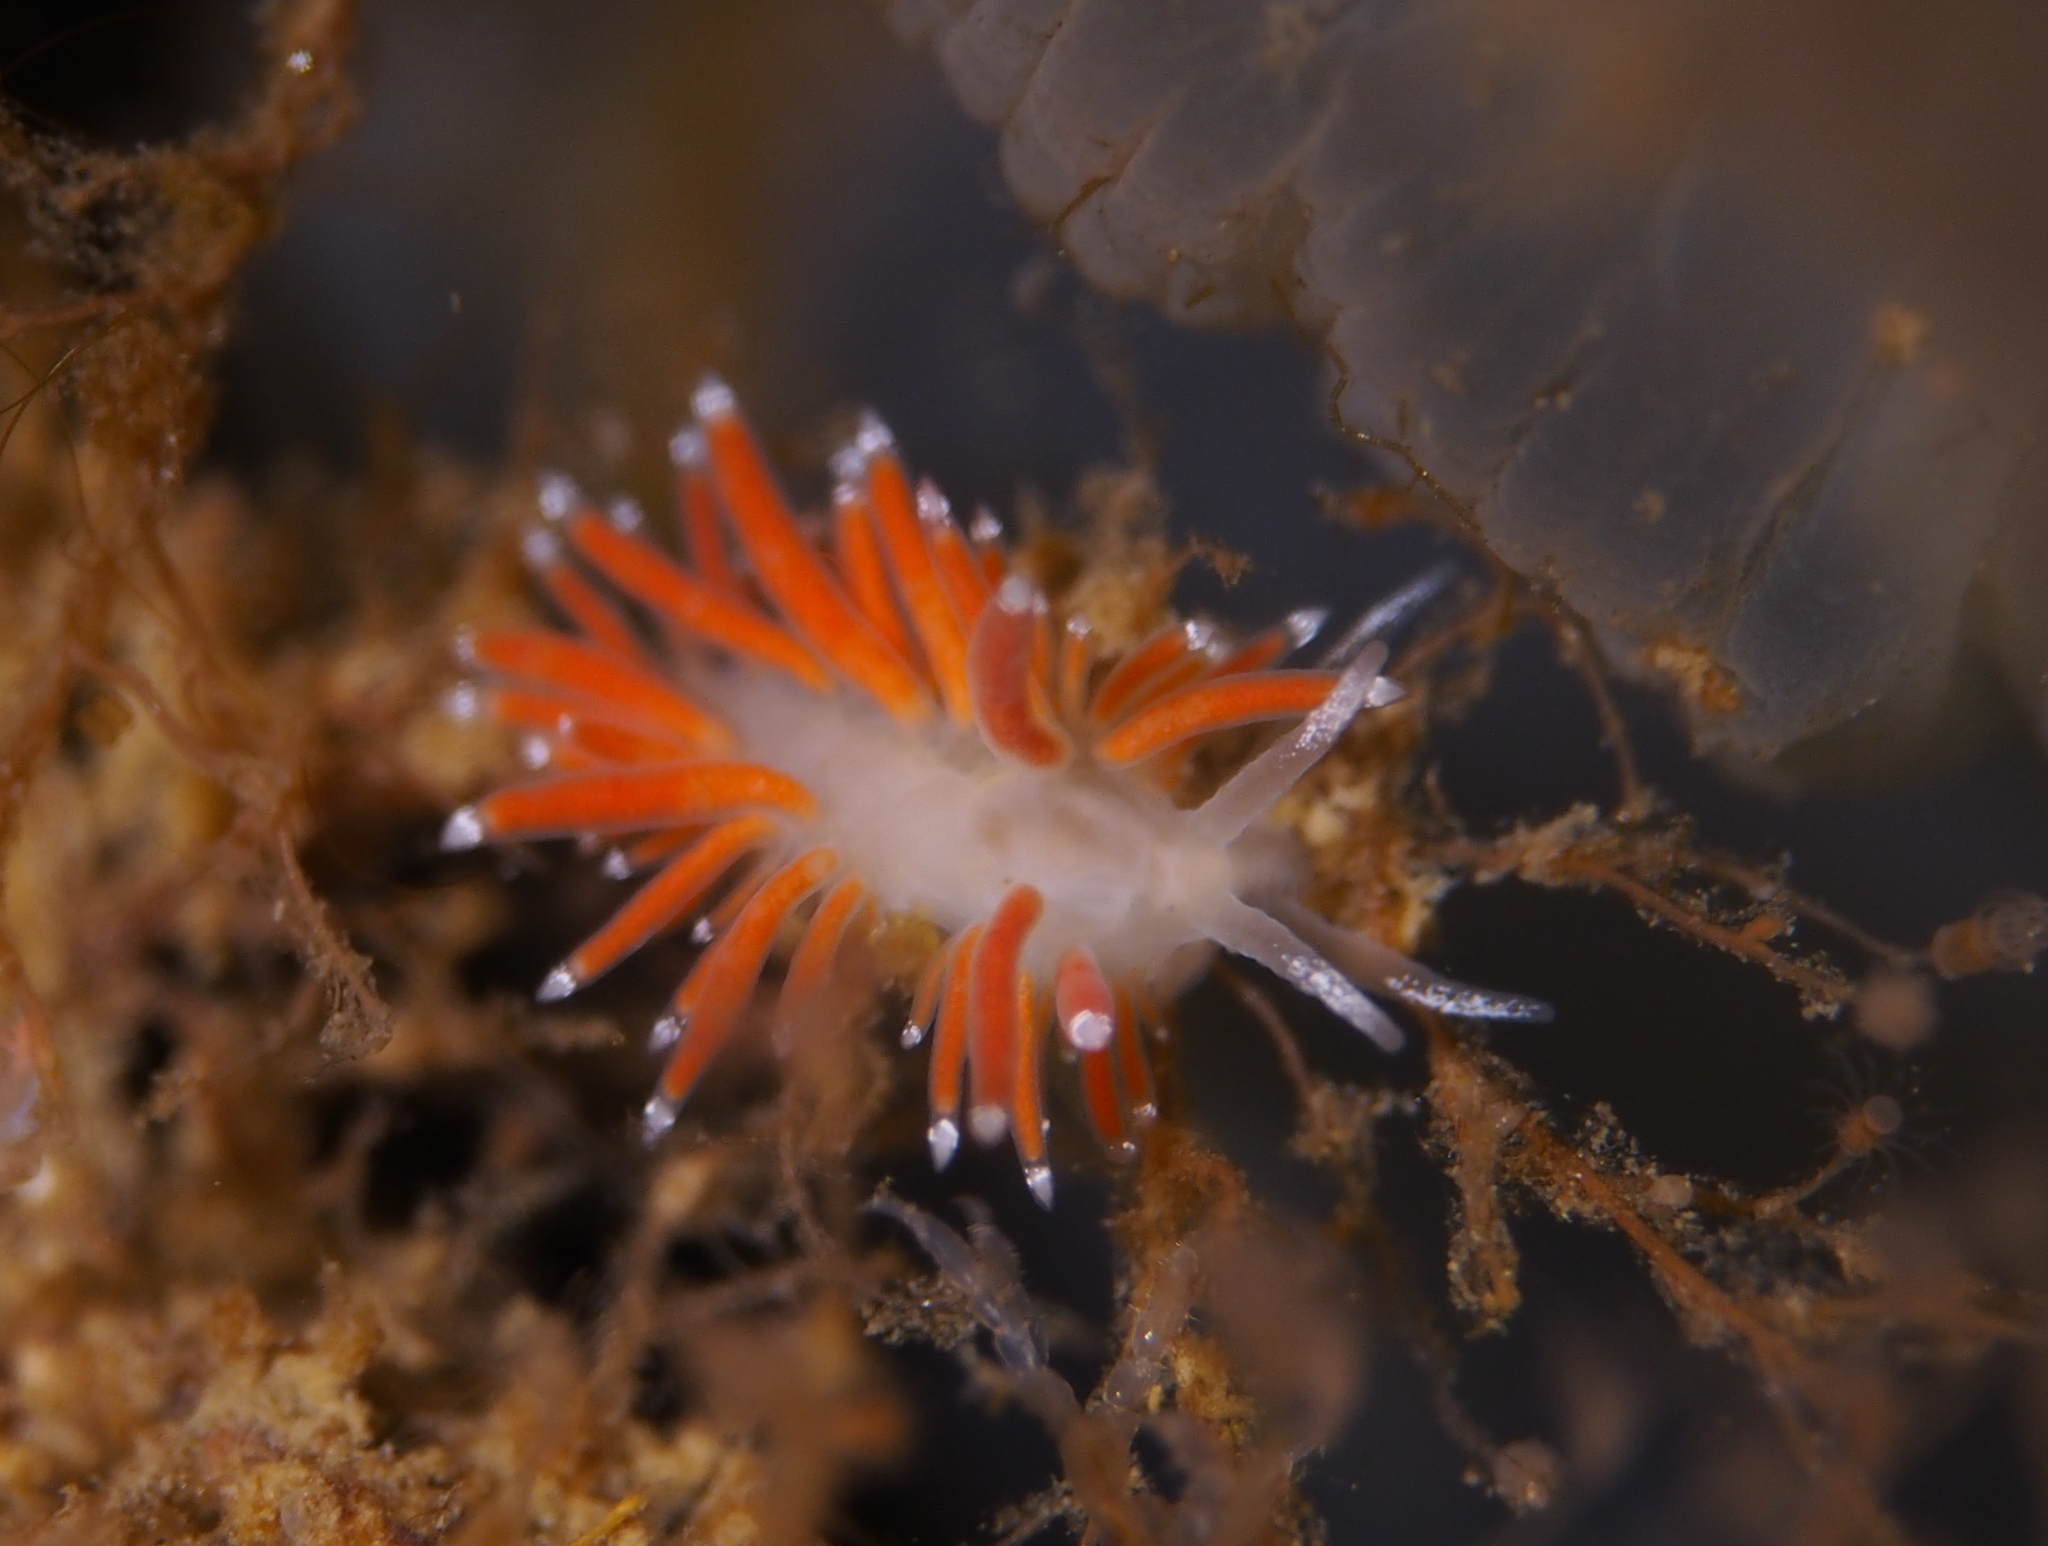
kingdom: Animalia
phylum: Mollusca
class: Gastropoda
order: Nudibranchia
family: Coryphellidae
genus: Coryphella
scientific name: Coryphella gracilis
